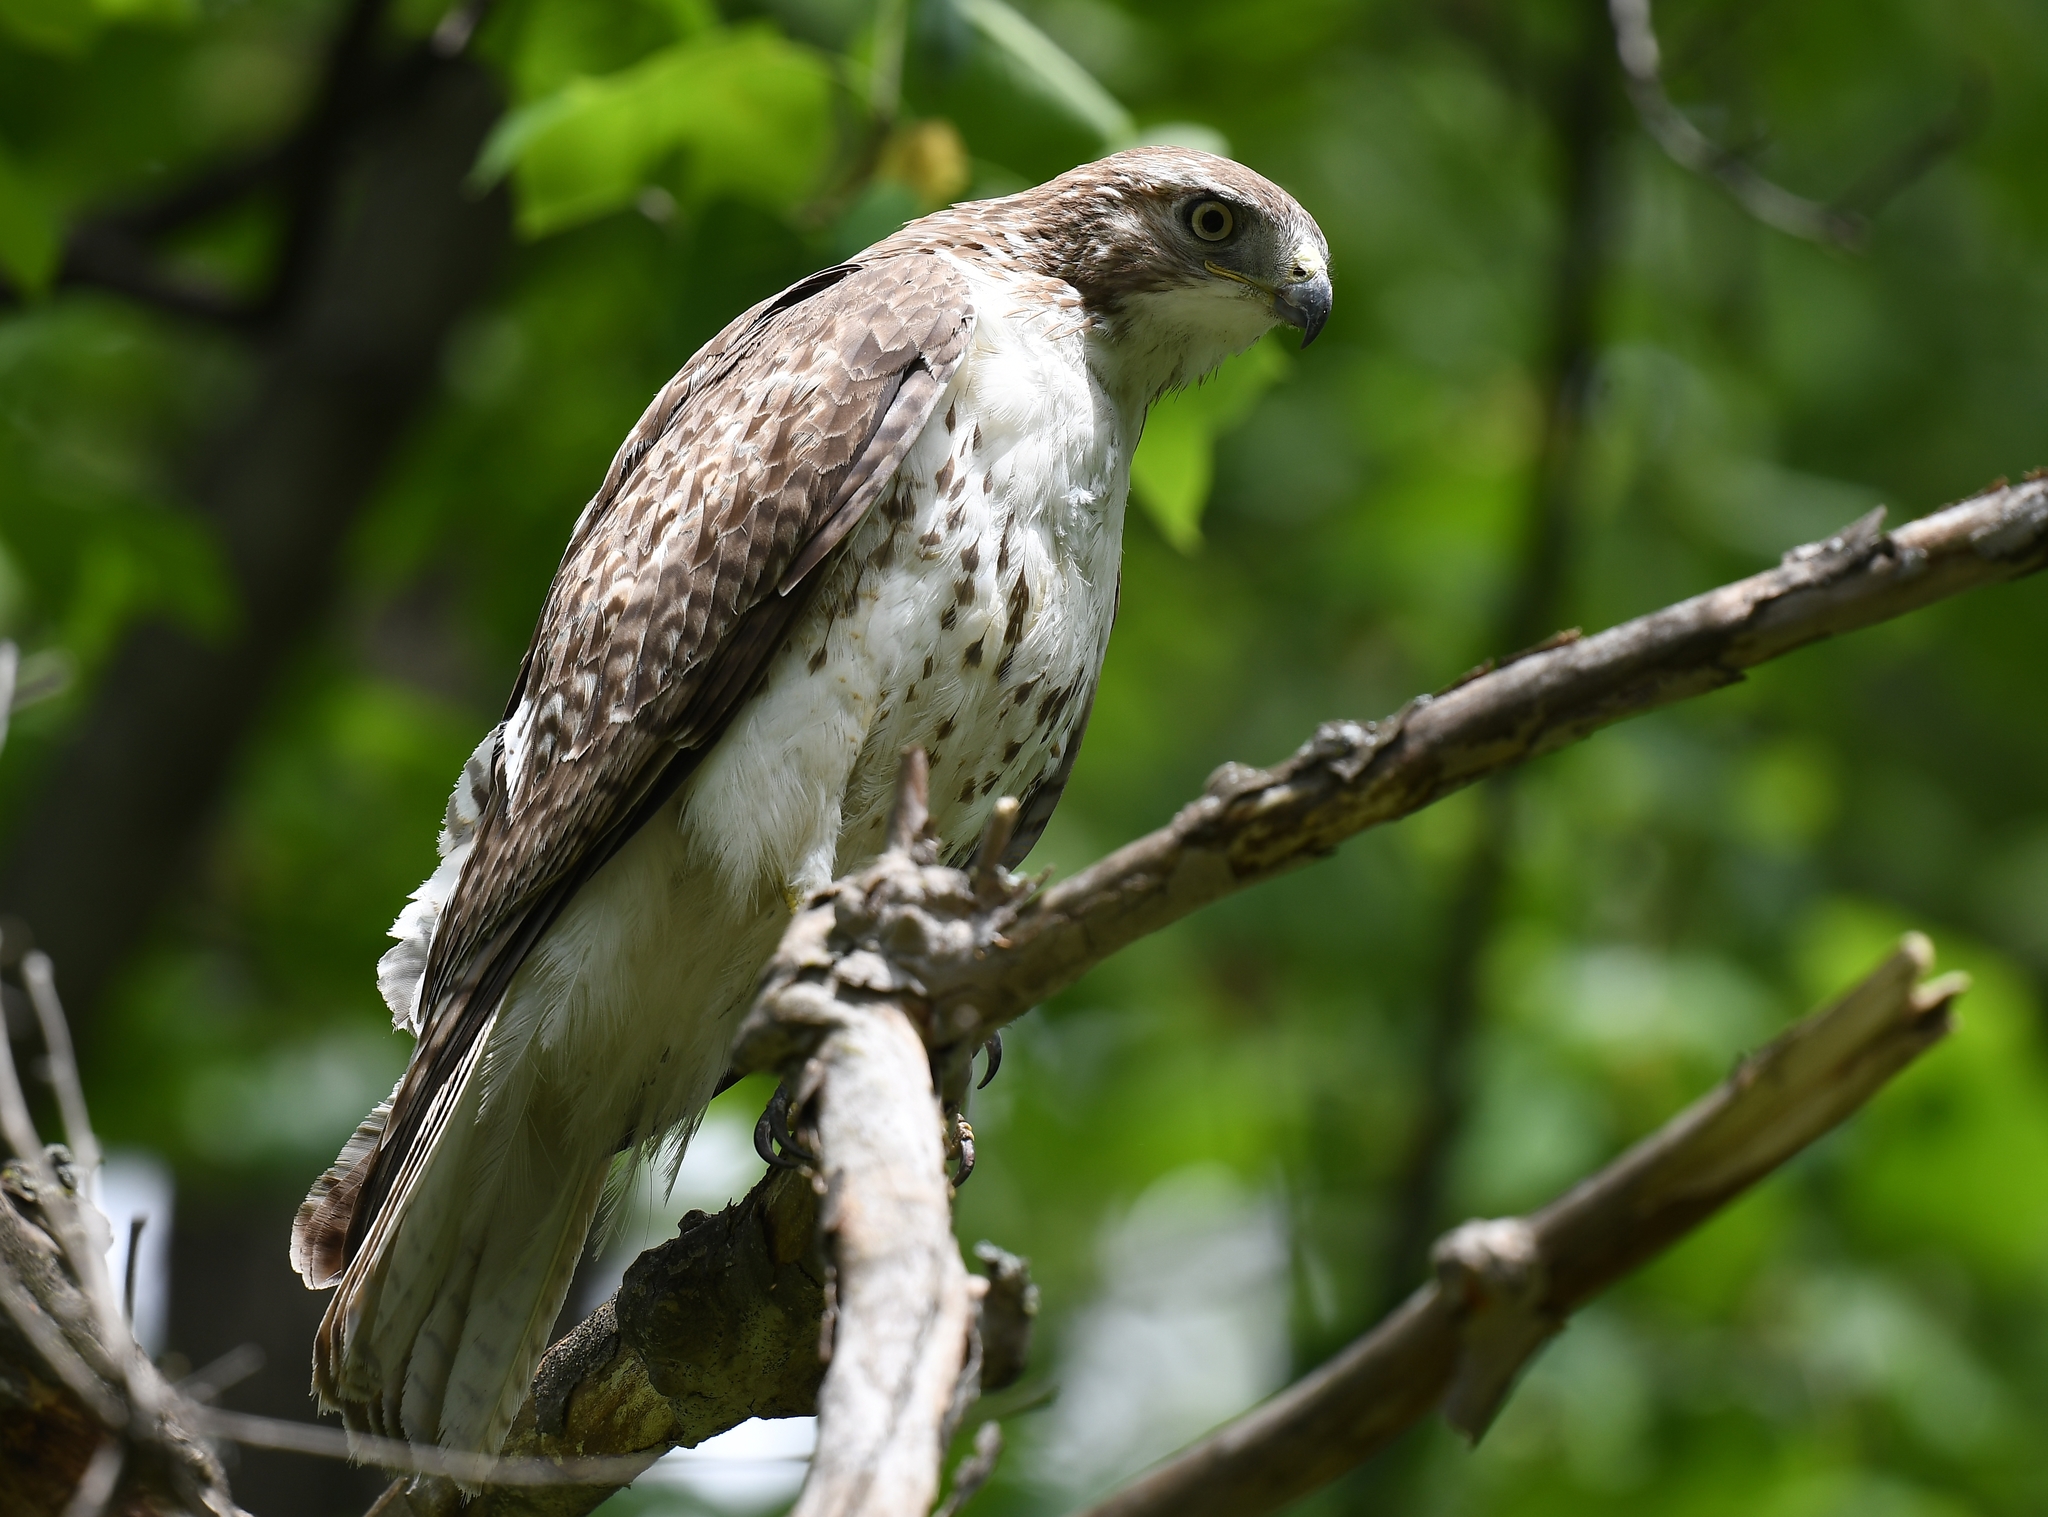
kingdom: Animalia
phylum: Chordata
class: Aves
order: Accipitriformes
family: Accipitridae
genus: Buteo
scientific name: Buteo jamaicensis
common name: Red-tailed hawk
